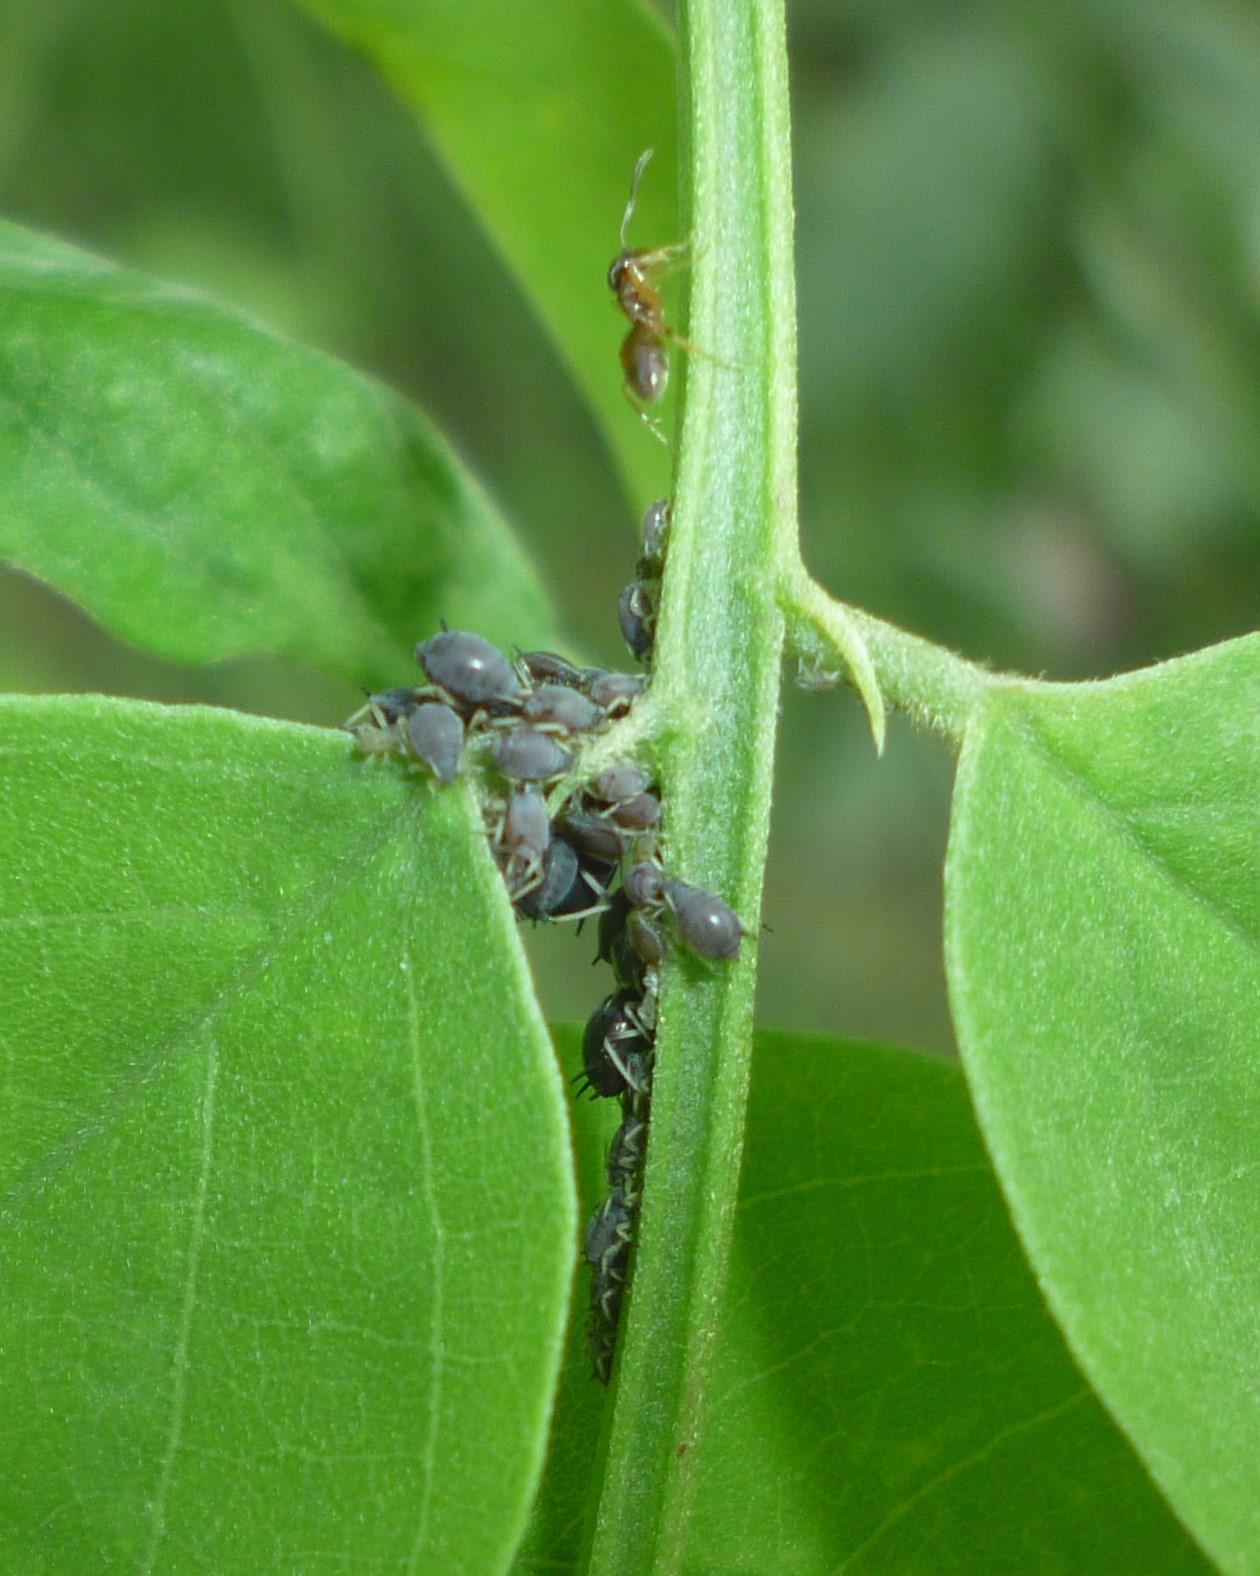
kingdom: Animalia
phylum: Arthropoda
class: Insecta
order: Hymenoptera
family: Formicidae
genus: Tapinoma
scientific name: Tapinoma sessile
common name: Odorous house ant
